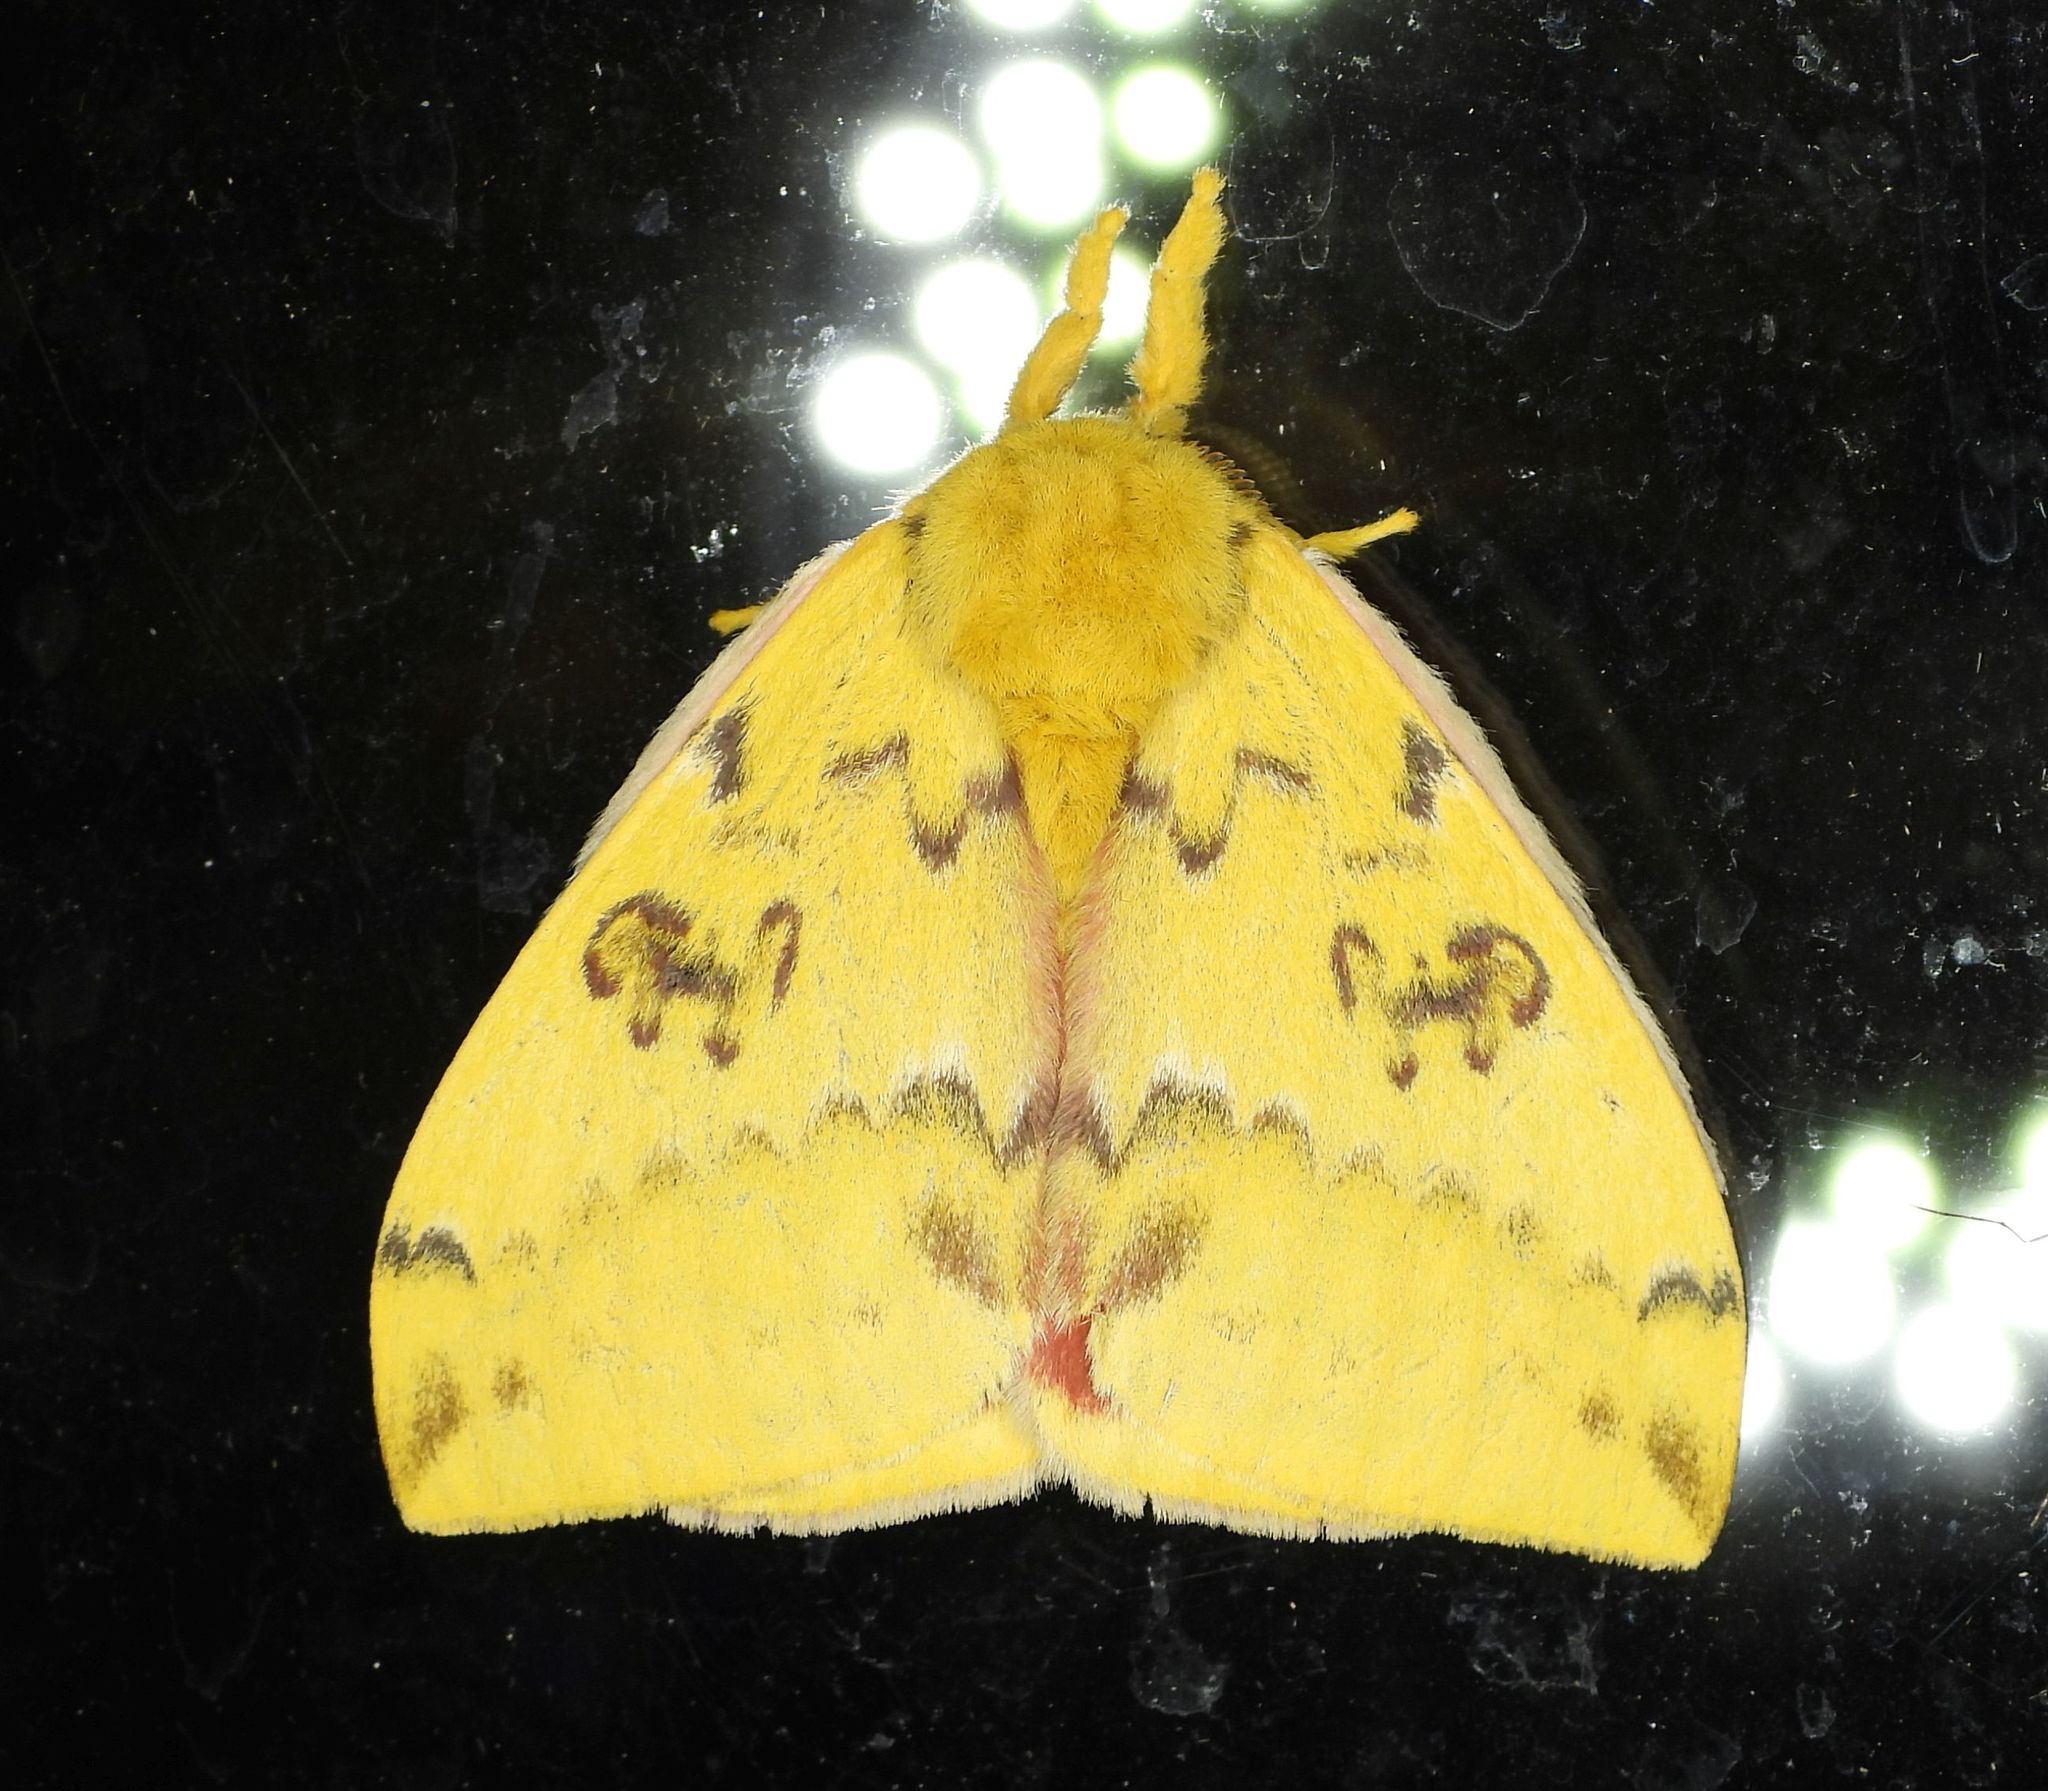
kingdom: Animalia
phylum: Arthropoda
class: Insecta
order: Lepidoptera
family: Saturniidae
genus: Automeris
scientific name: Automeris io
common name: Io moth
